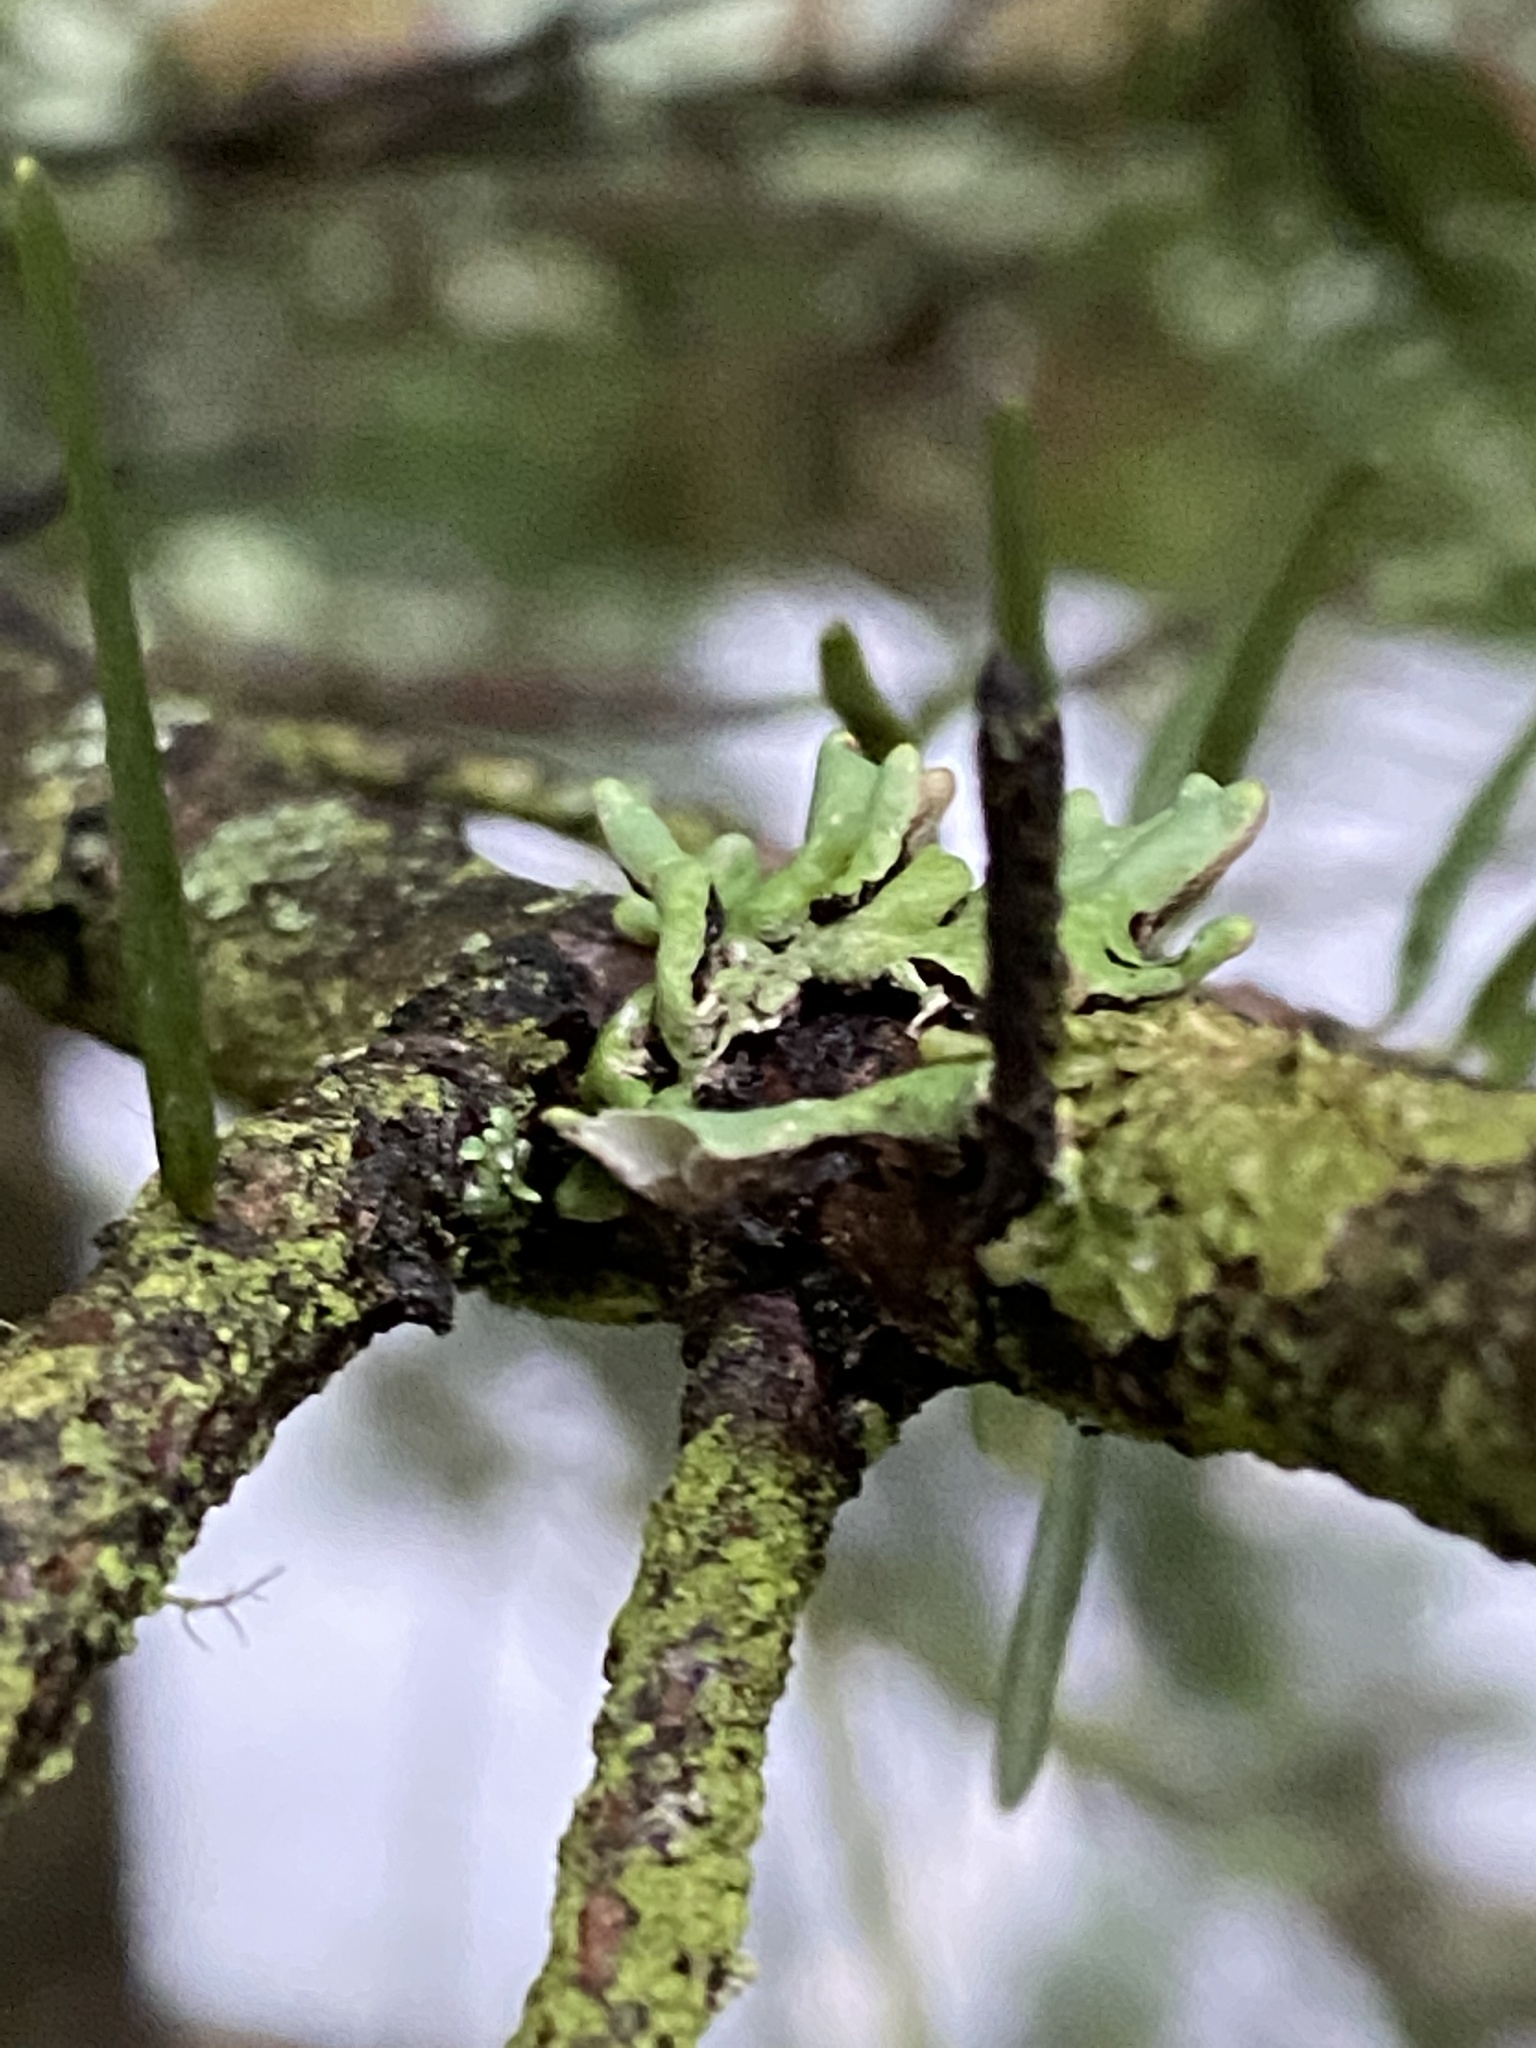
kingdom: Fungi
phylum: Ascomycota
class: Lecanoromycetes
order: Lecanorales
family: Parmeliaceae
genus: Hypogymnia
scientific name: Hypogymnia imshaugii
